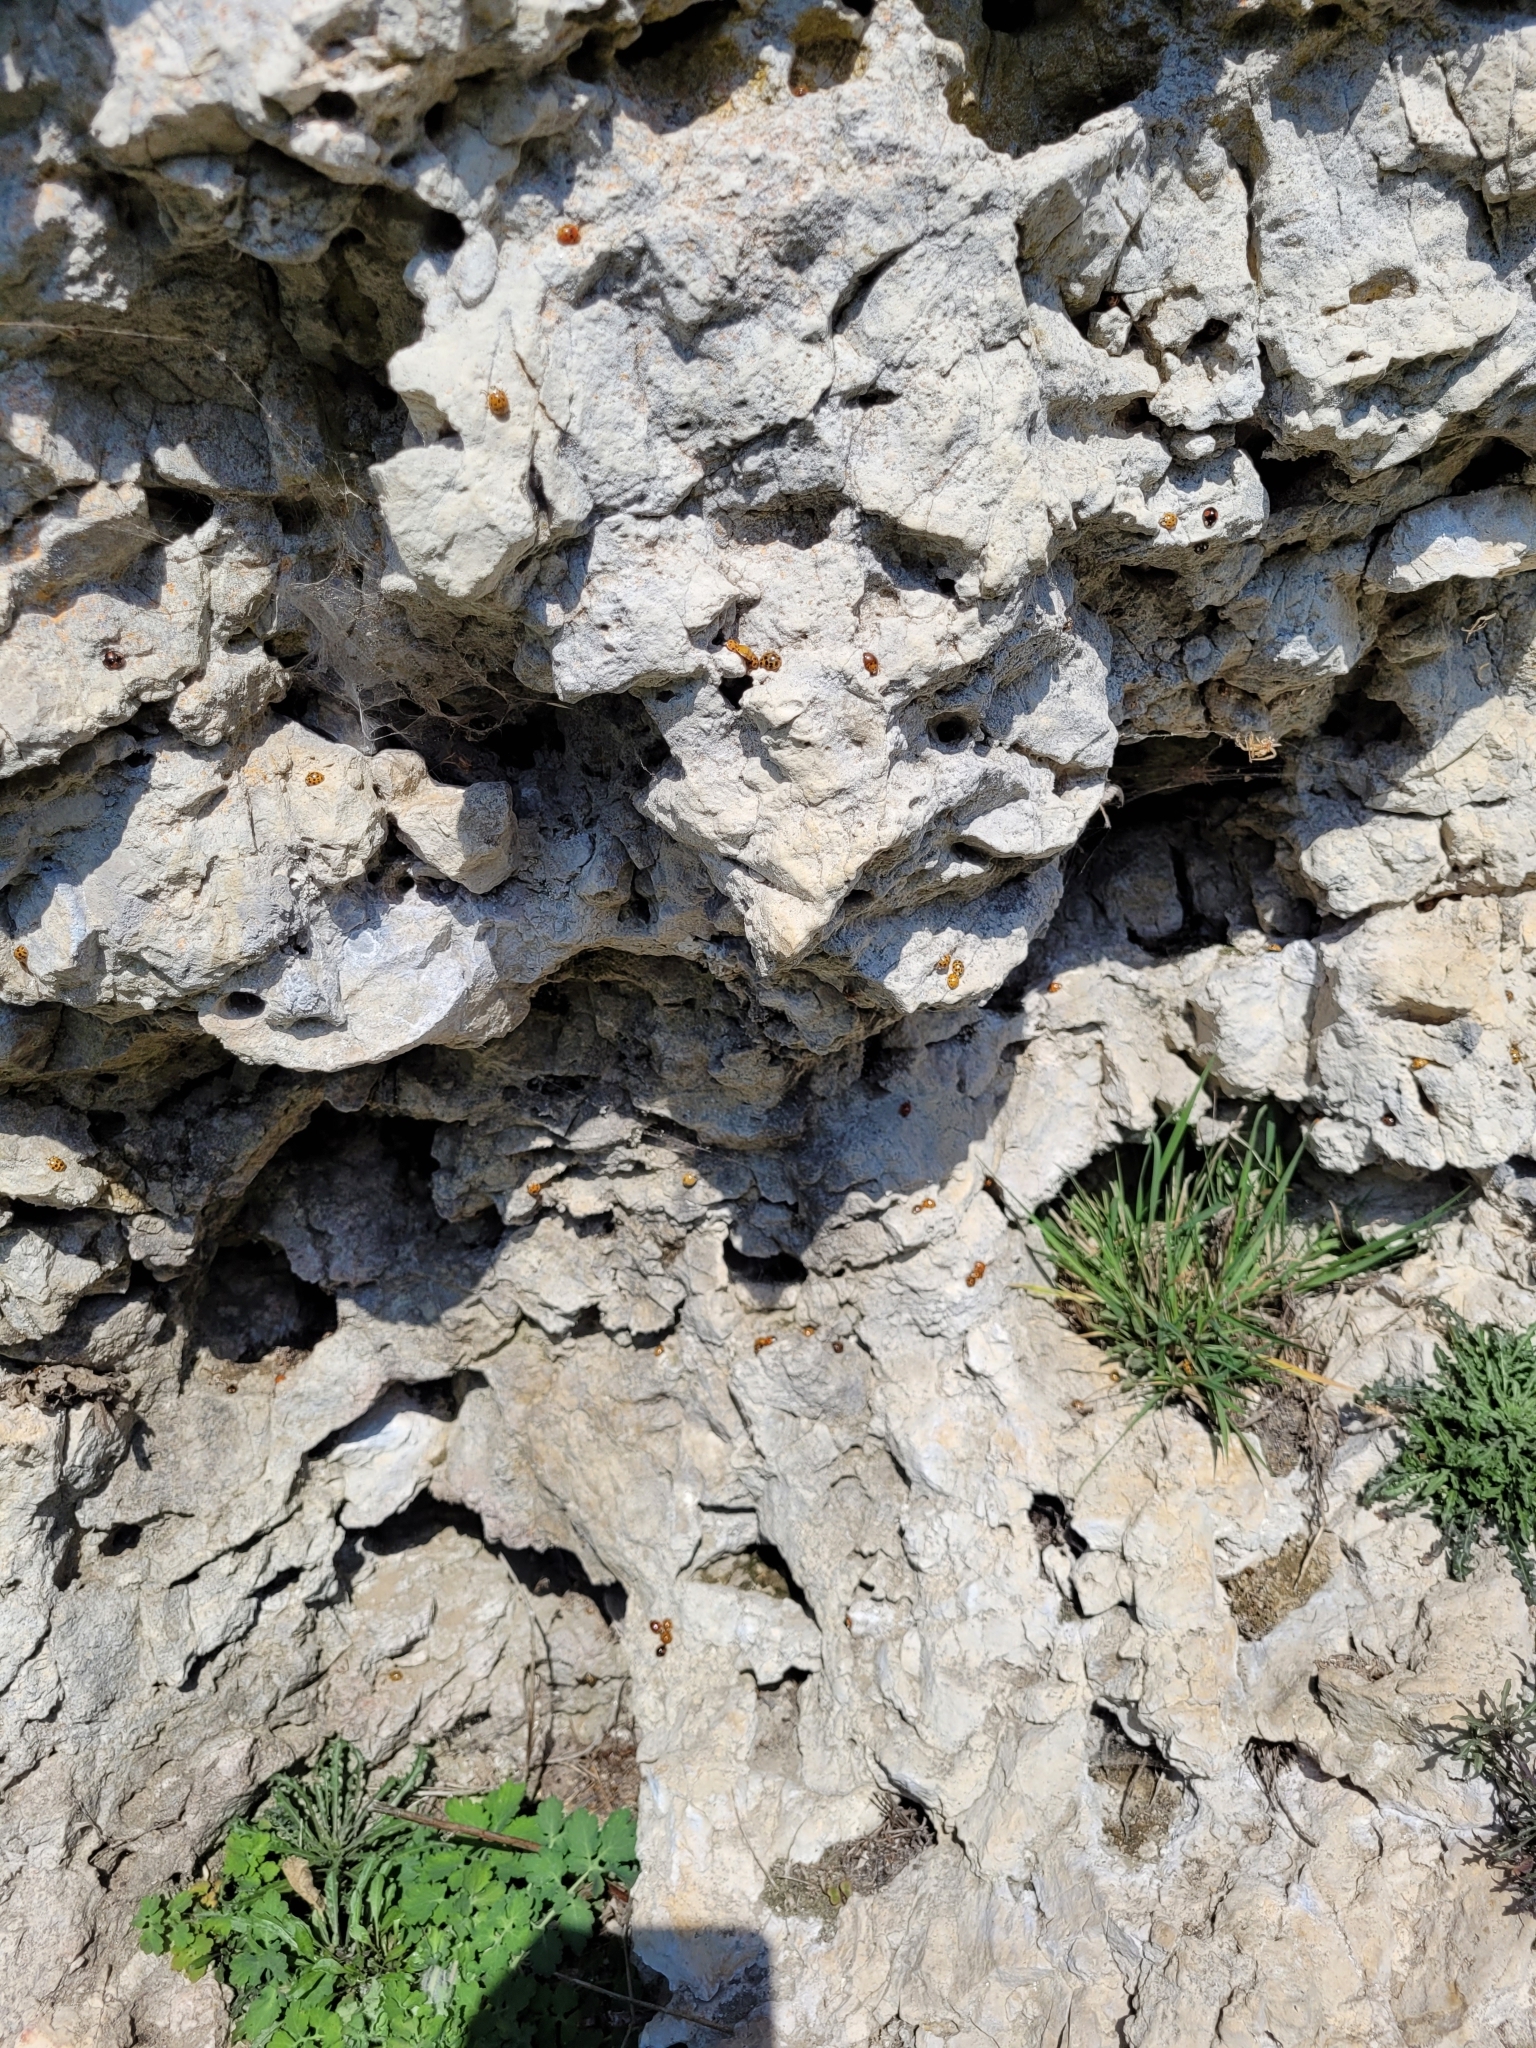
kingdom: Animalia
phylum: Arthropoda
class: Insecta
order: Coleoptera
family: Coccinellidae
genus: Harmonia
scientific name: Harmonia axyridis
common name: Harlequin ladybird
